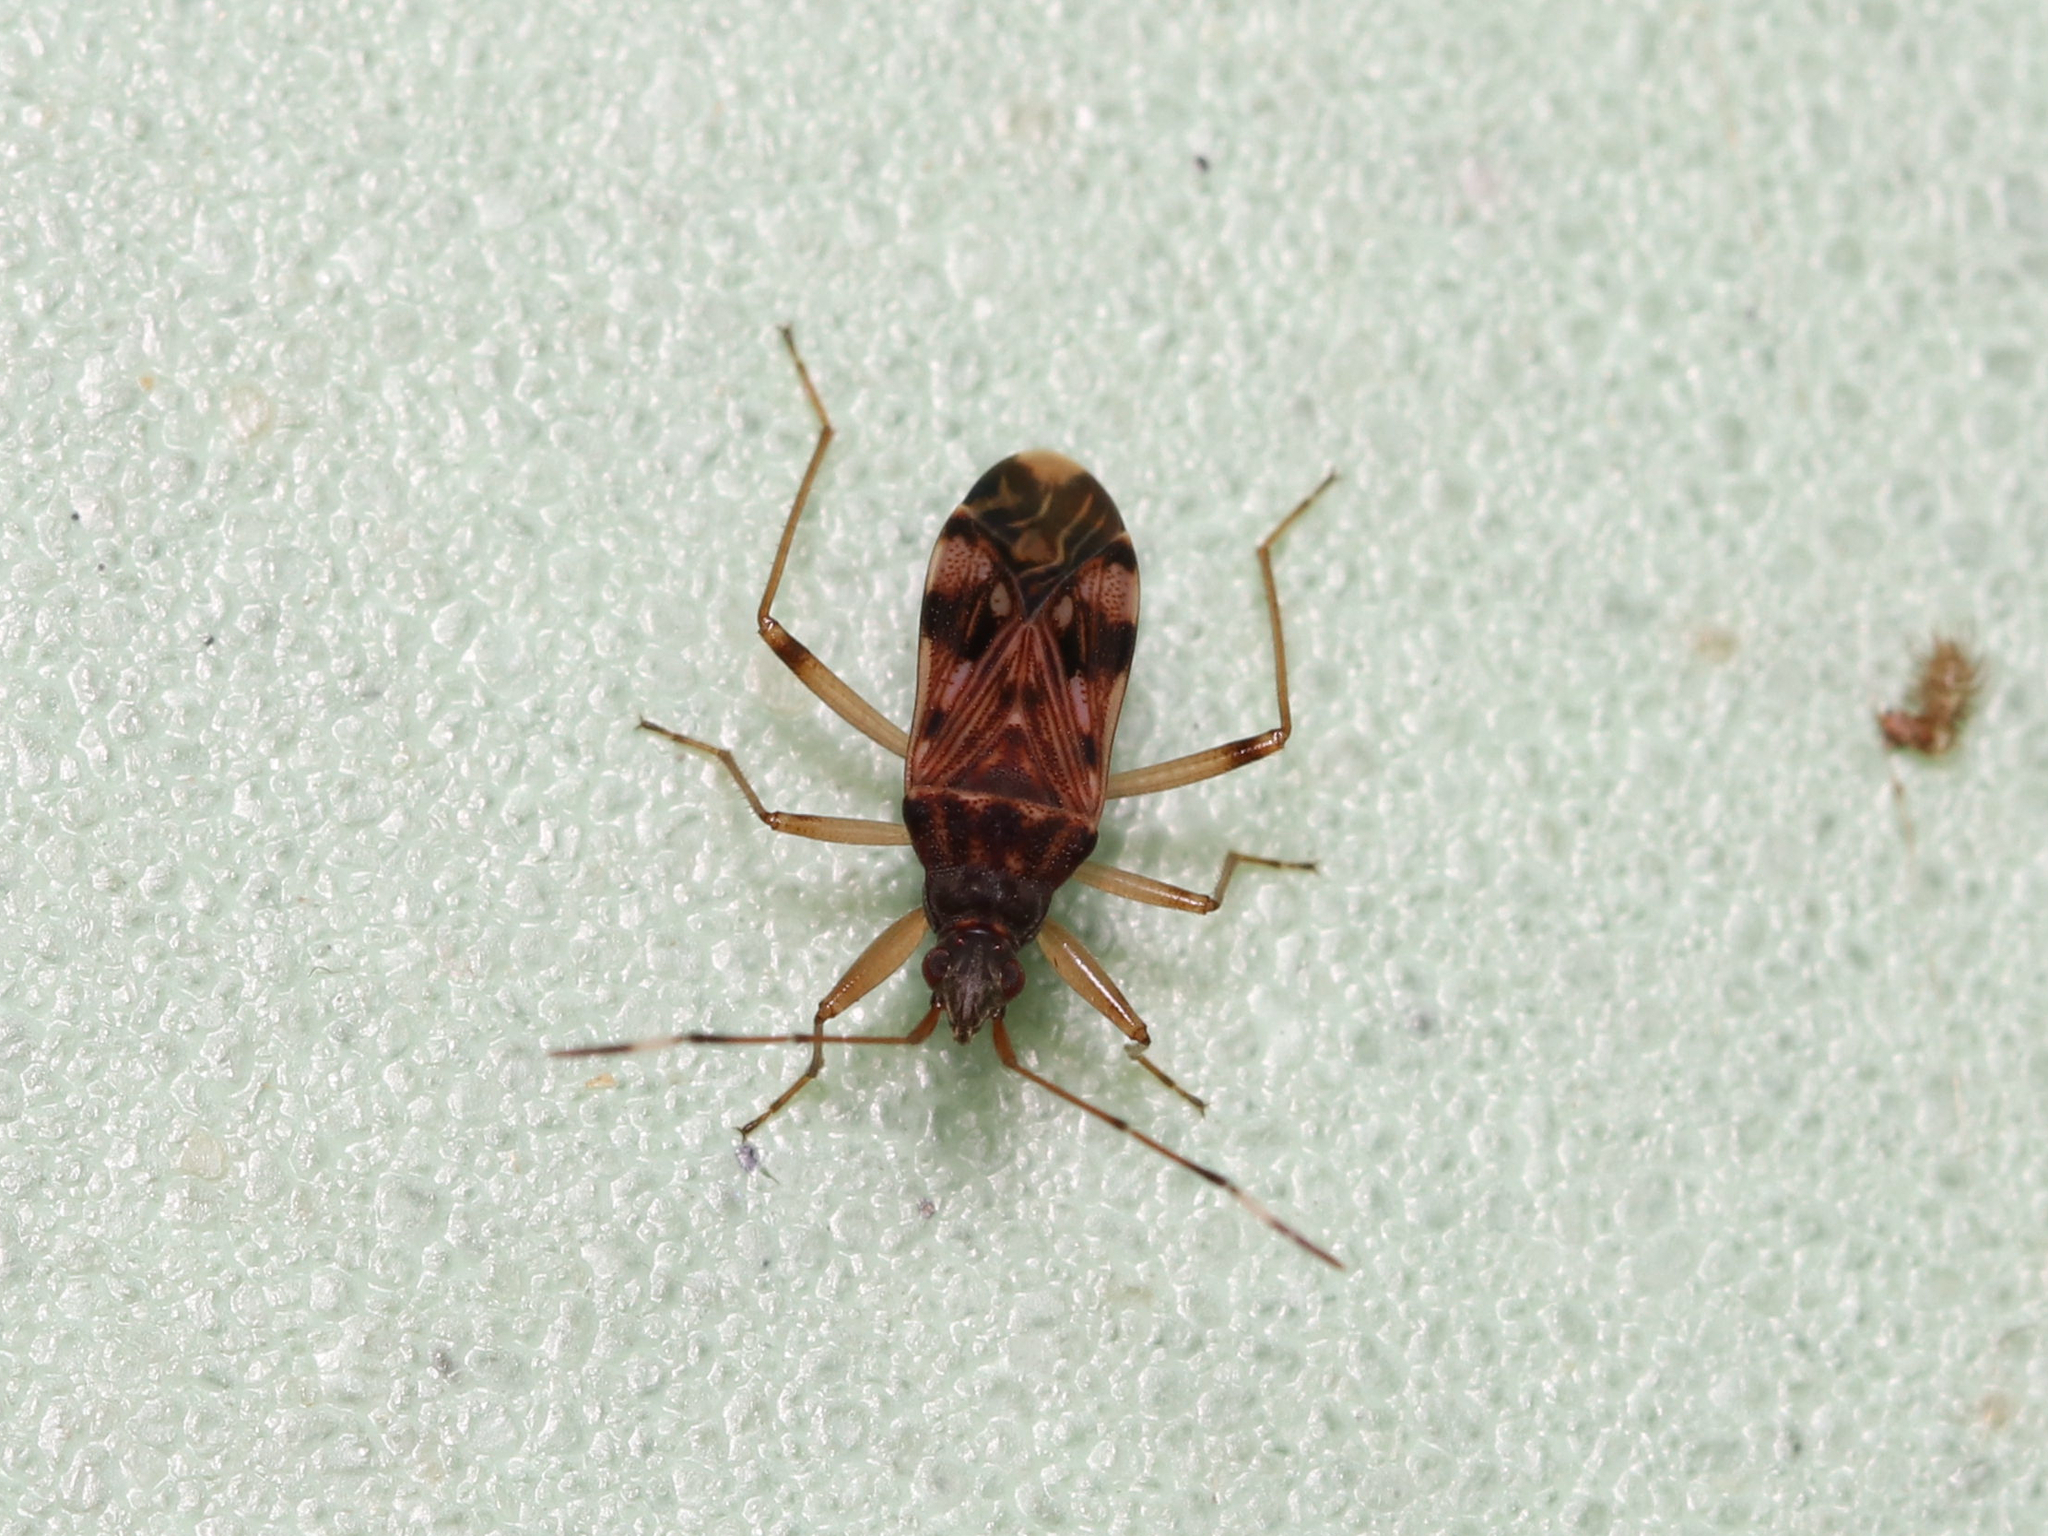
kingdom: Animalia
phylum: Arthropoda
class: Insecta
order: Hemiptera
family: Rhyparochromidae
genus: Ozophora
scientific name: Ozophora picturata
